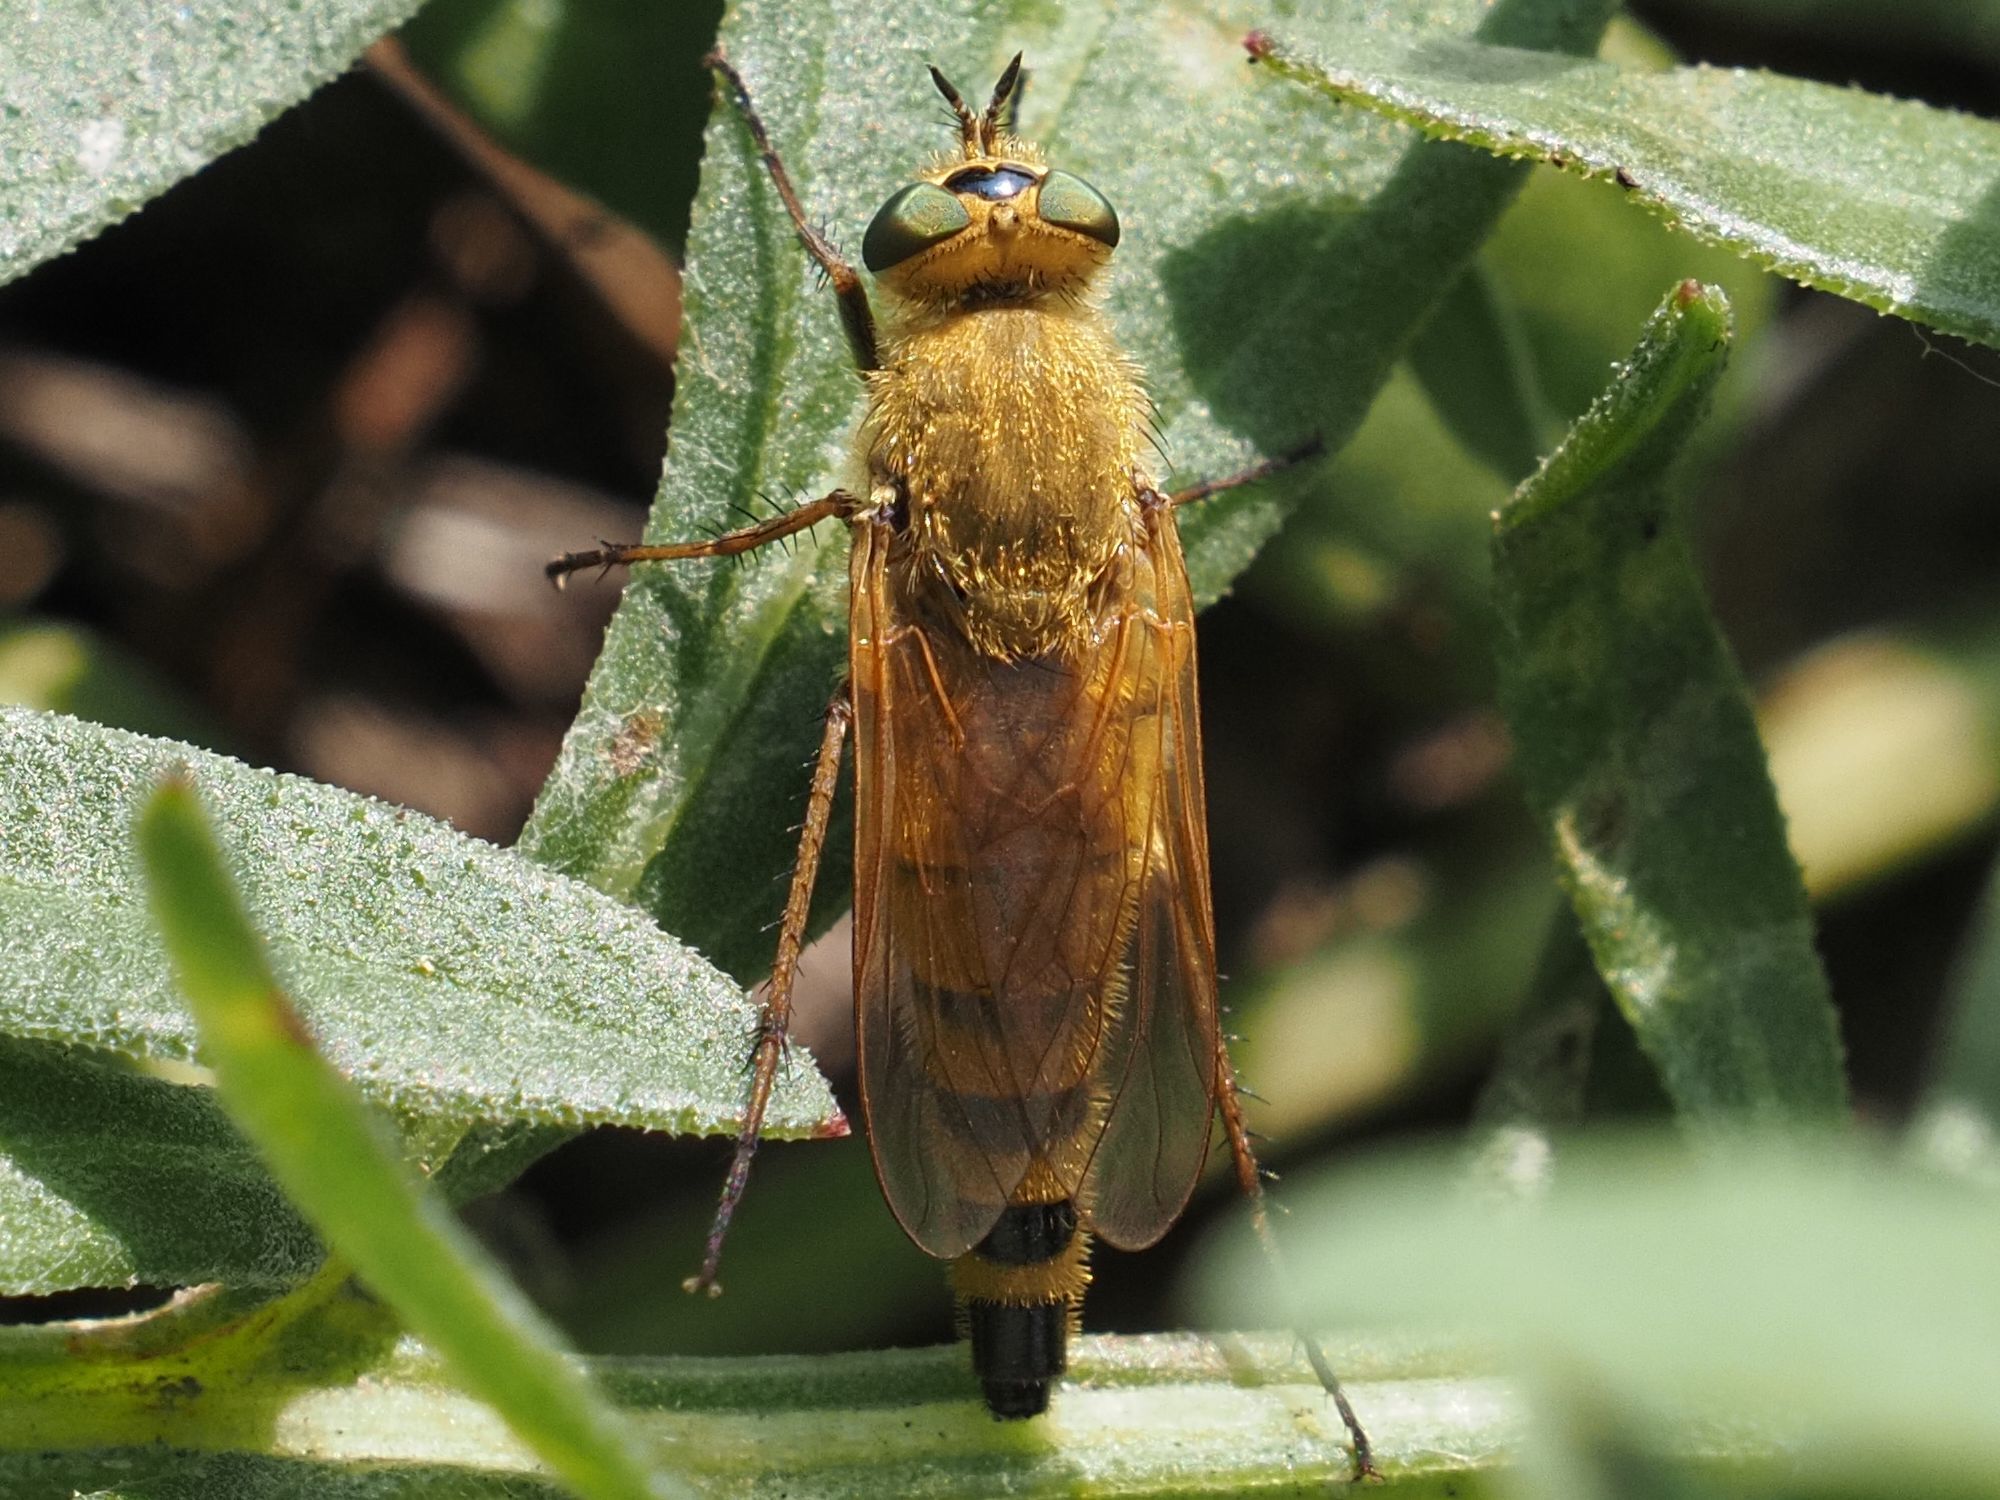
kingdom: Animalia
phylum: Arthropoda
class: Insecta
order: Diptera
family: Therevidae
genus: Thereva
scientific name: Thereva fulva
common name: Small plain stiletto
